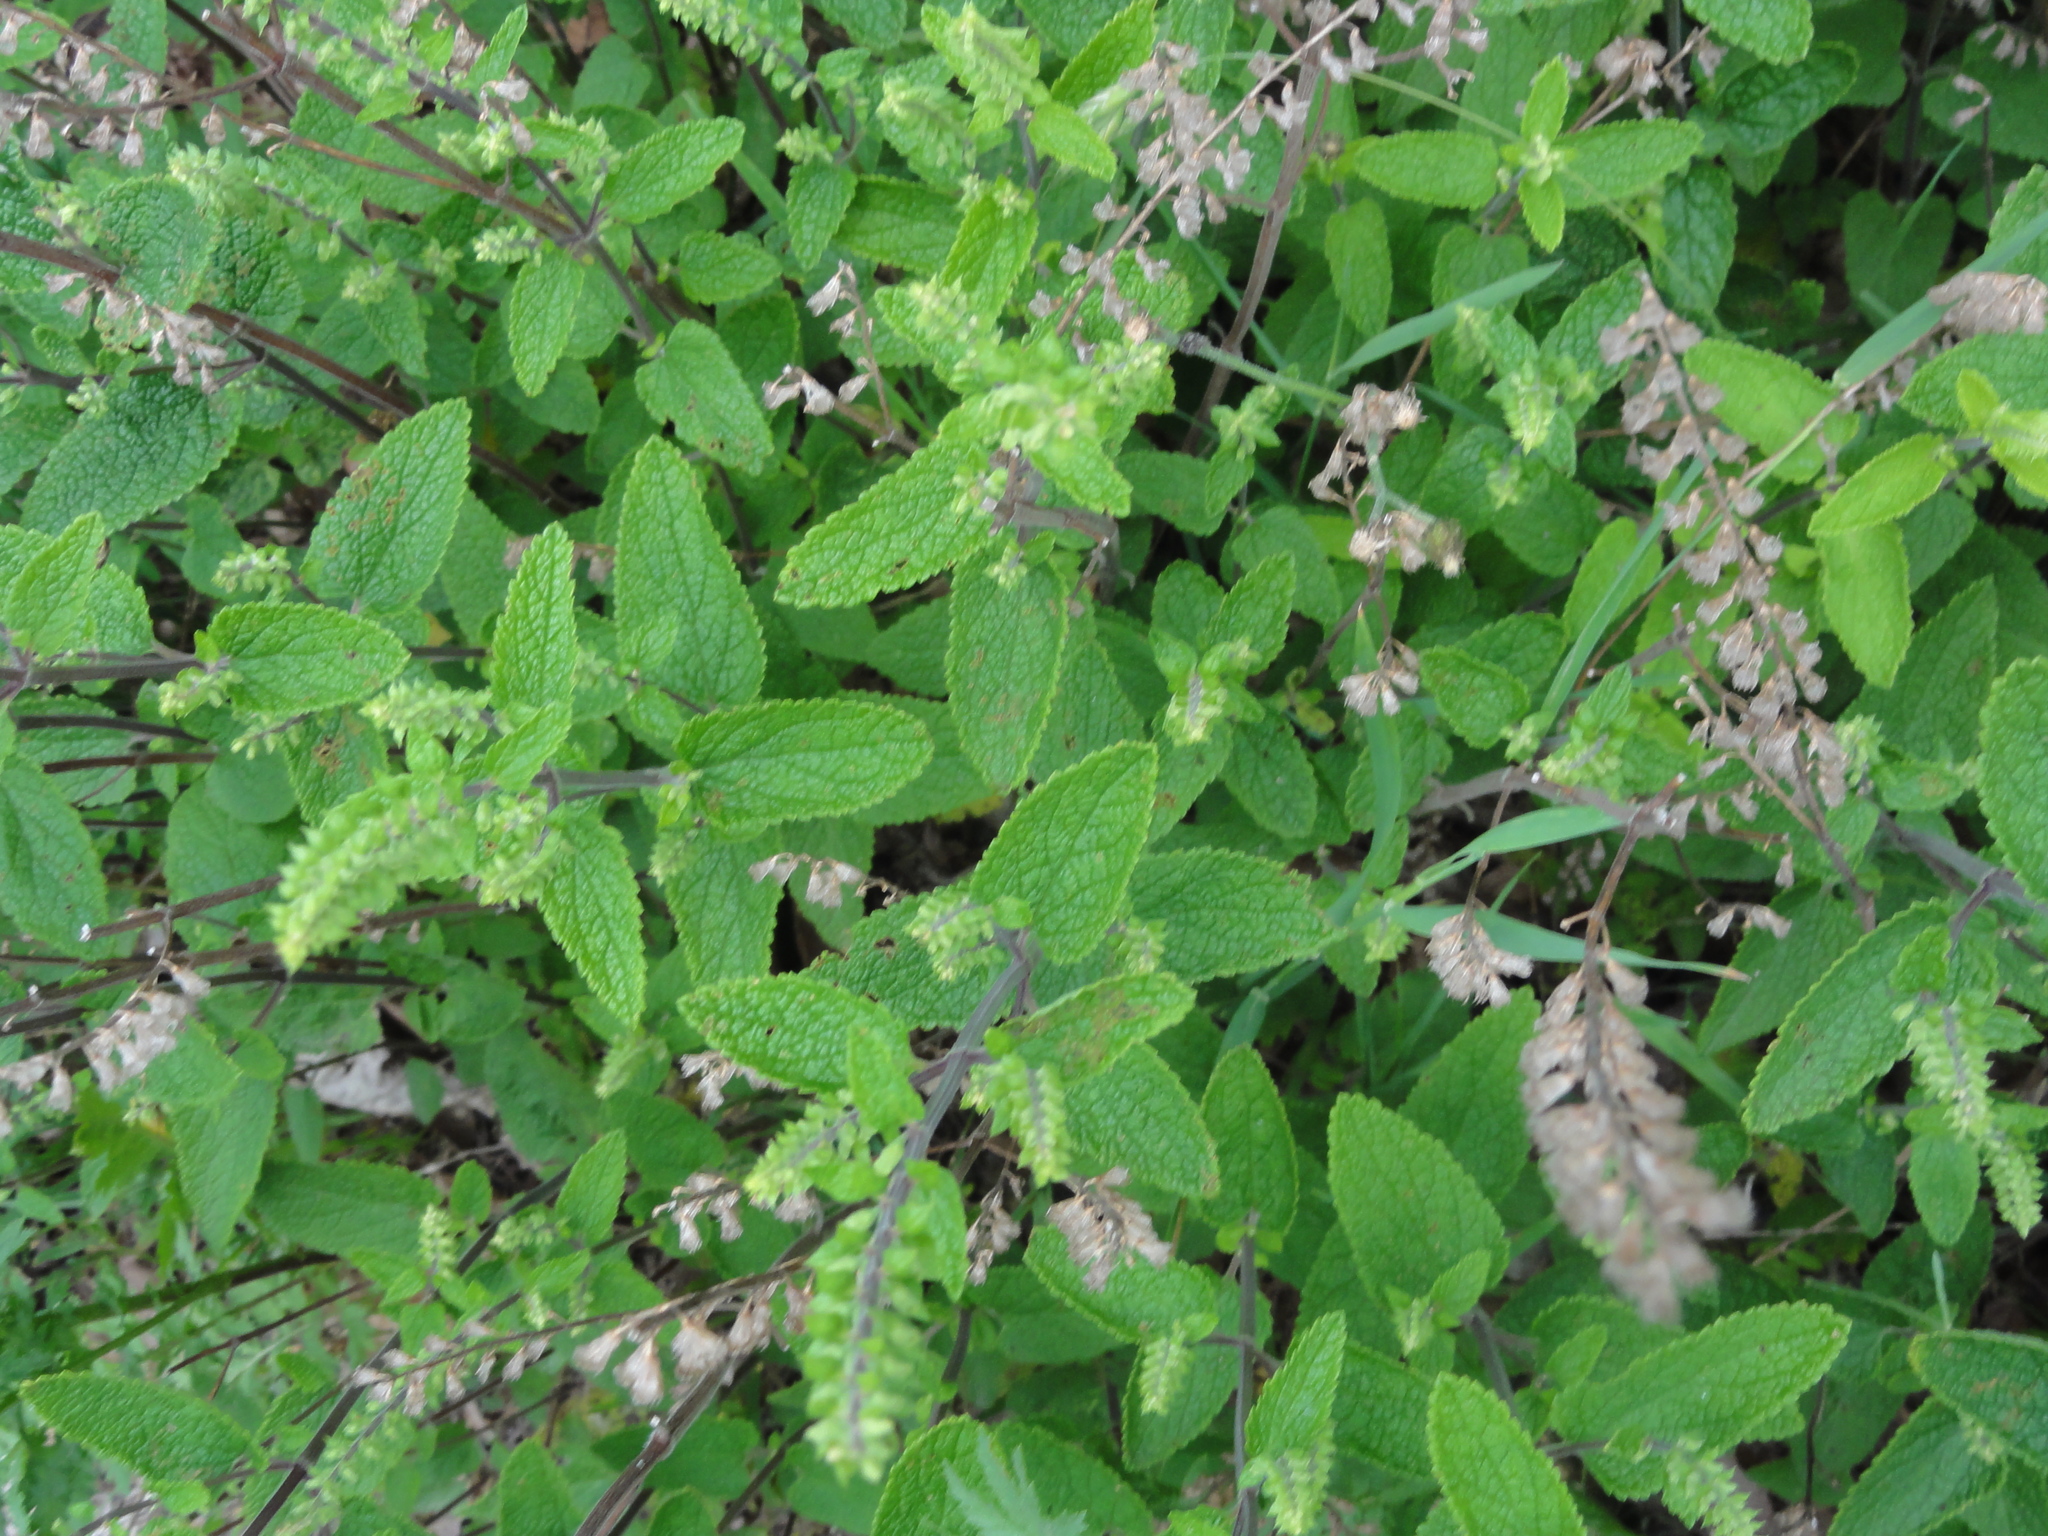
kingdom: Plantae
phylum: Tracheophyta
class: Magnoliopsida
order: Lamiales
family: Lamiaceae
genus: Teucrium
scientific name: Teucrium scorodonia
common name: Woodland germander
